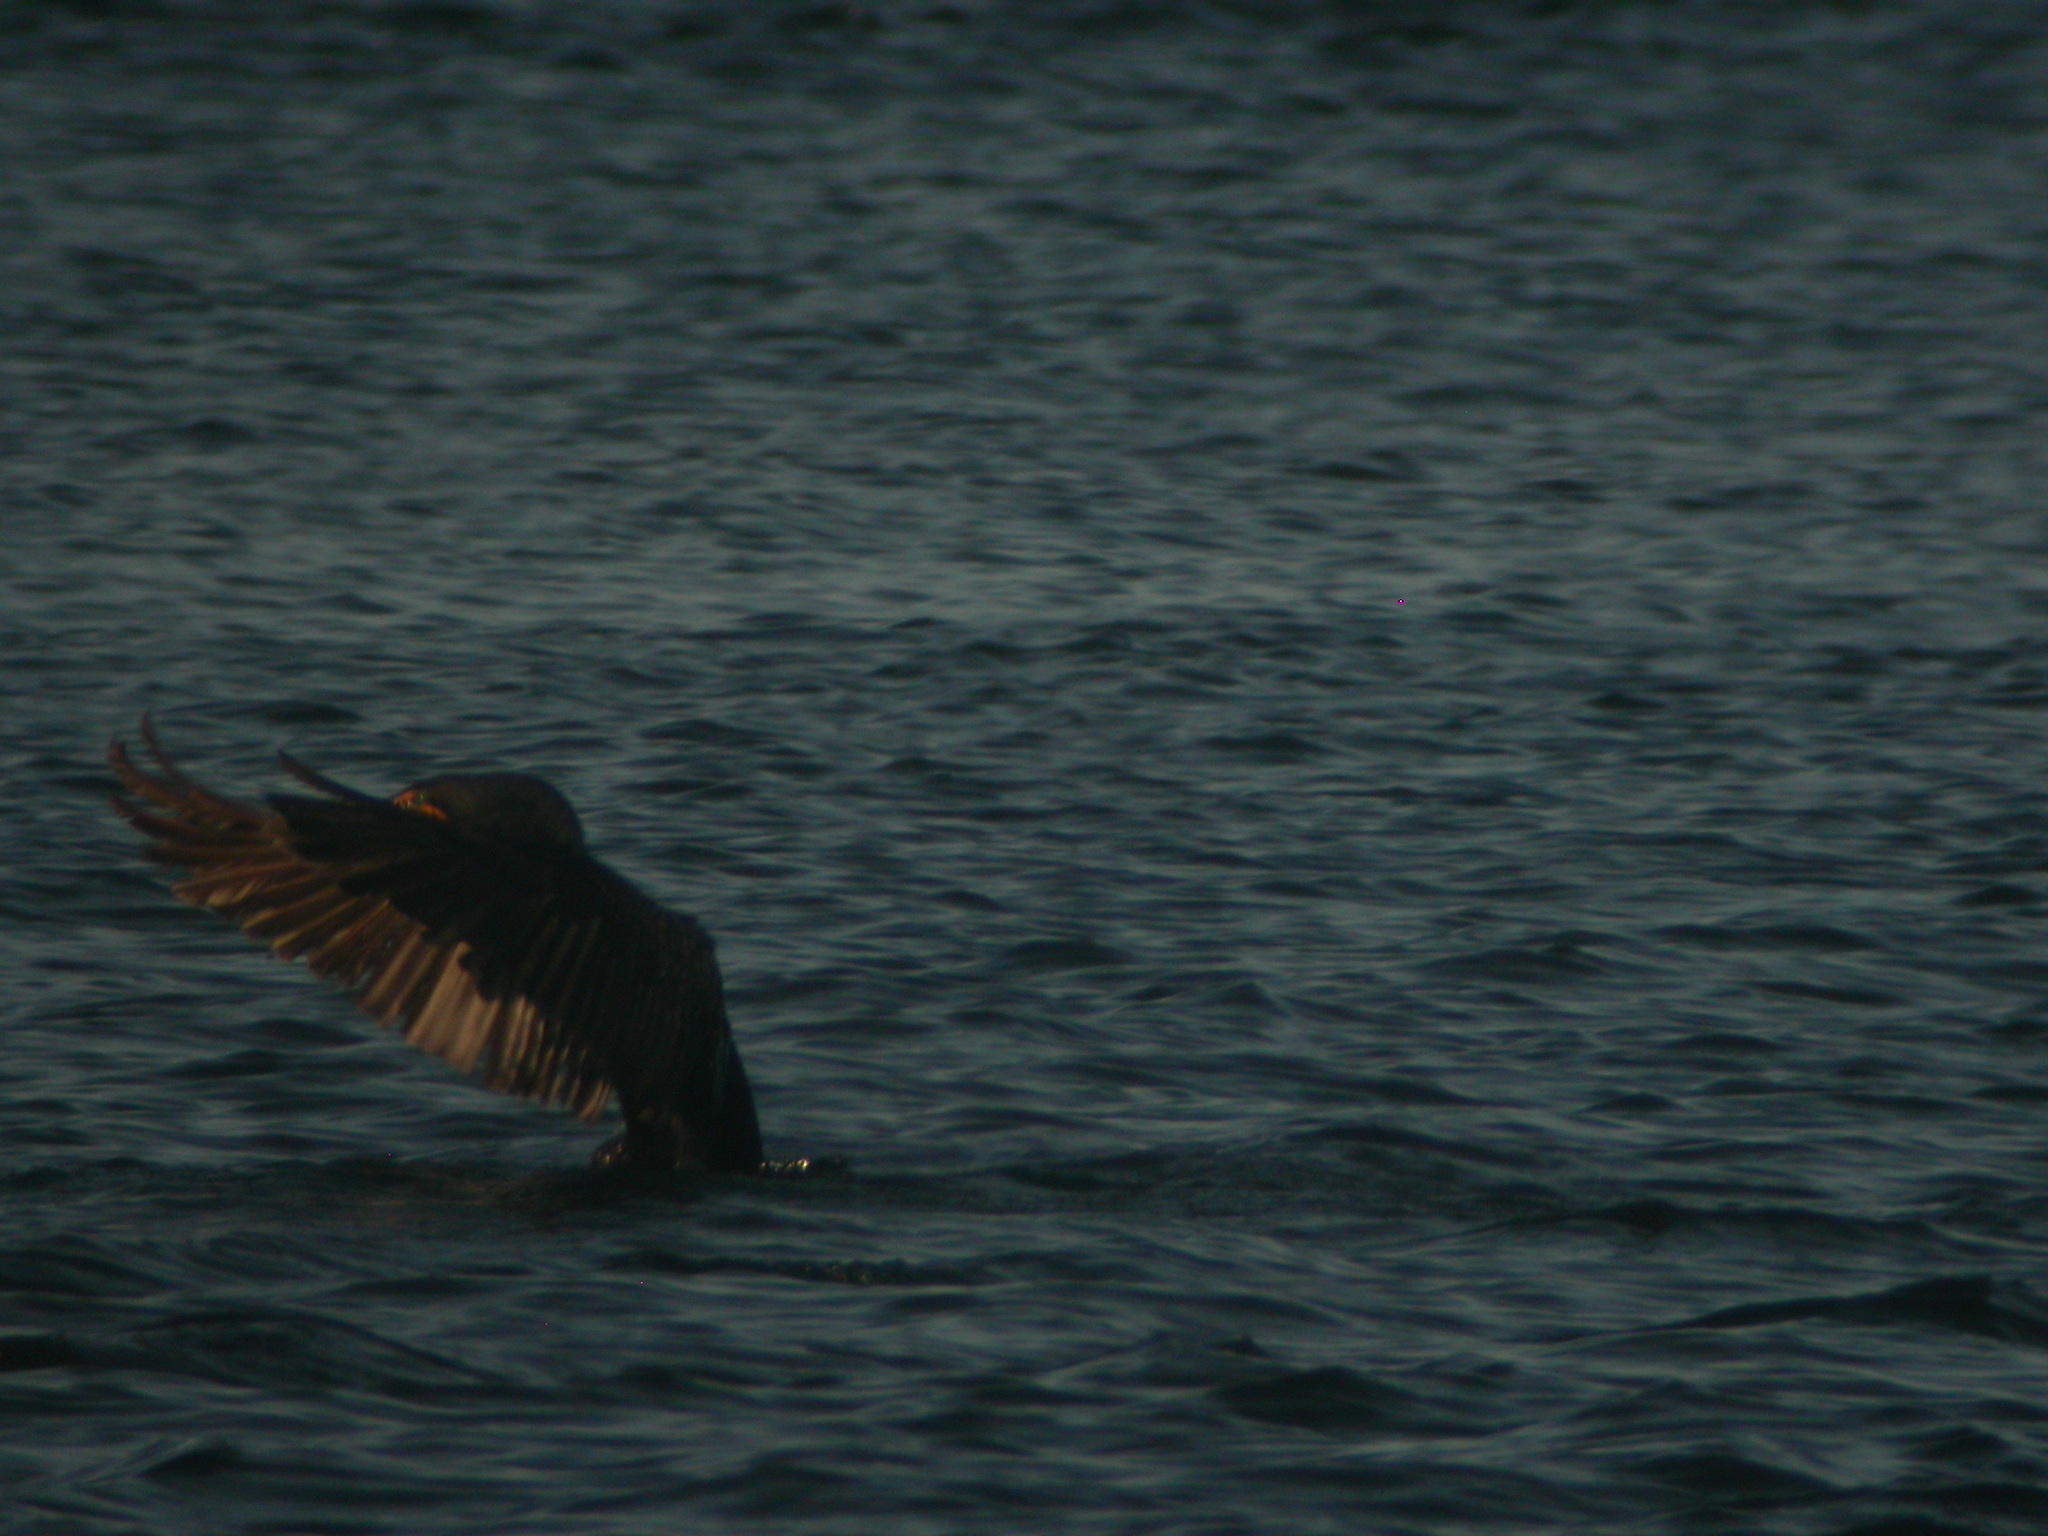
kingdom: Animalia
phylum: Chordata
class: Aves
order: Suliformes
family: Phalacrocoracidae
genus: Phalacrocorax
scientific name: Phalacrocorax auritus
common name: Double-crested cormorant
